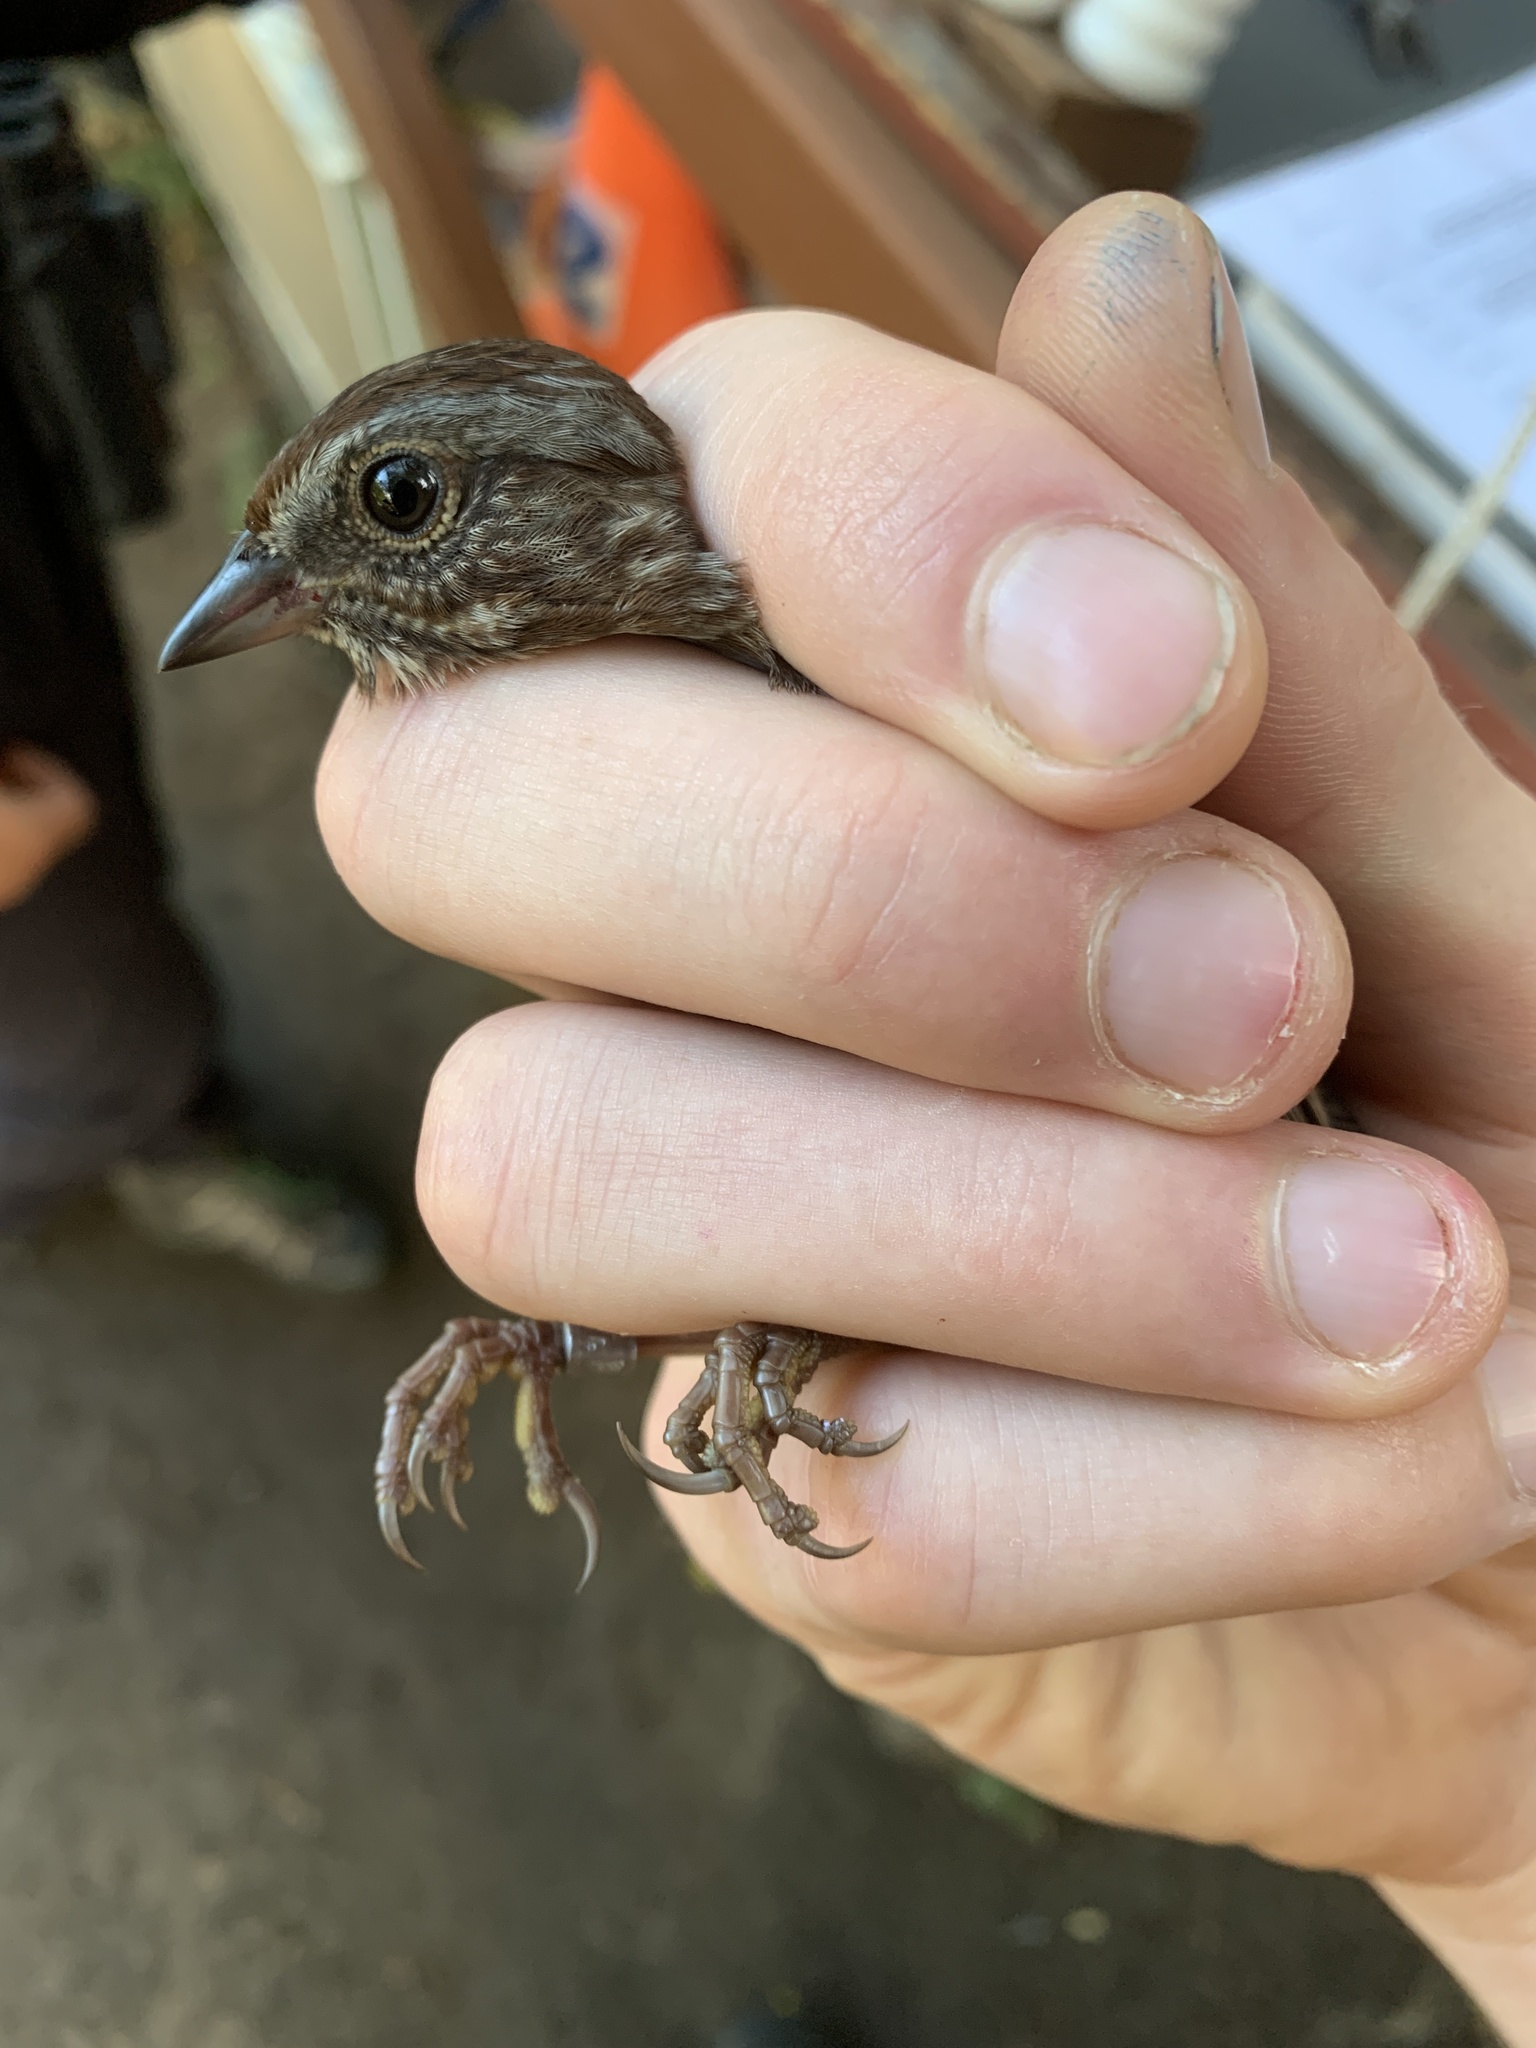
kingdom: Animalia
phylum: Chordata
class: Aves
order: Passeriformes
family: Passerellidae
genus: Melospiza
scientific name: Melospiza melodia
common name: Song sparrow
